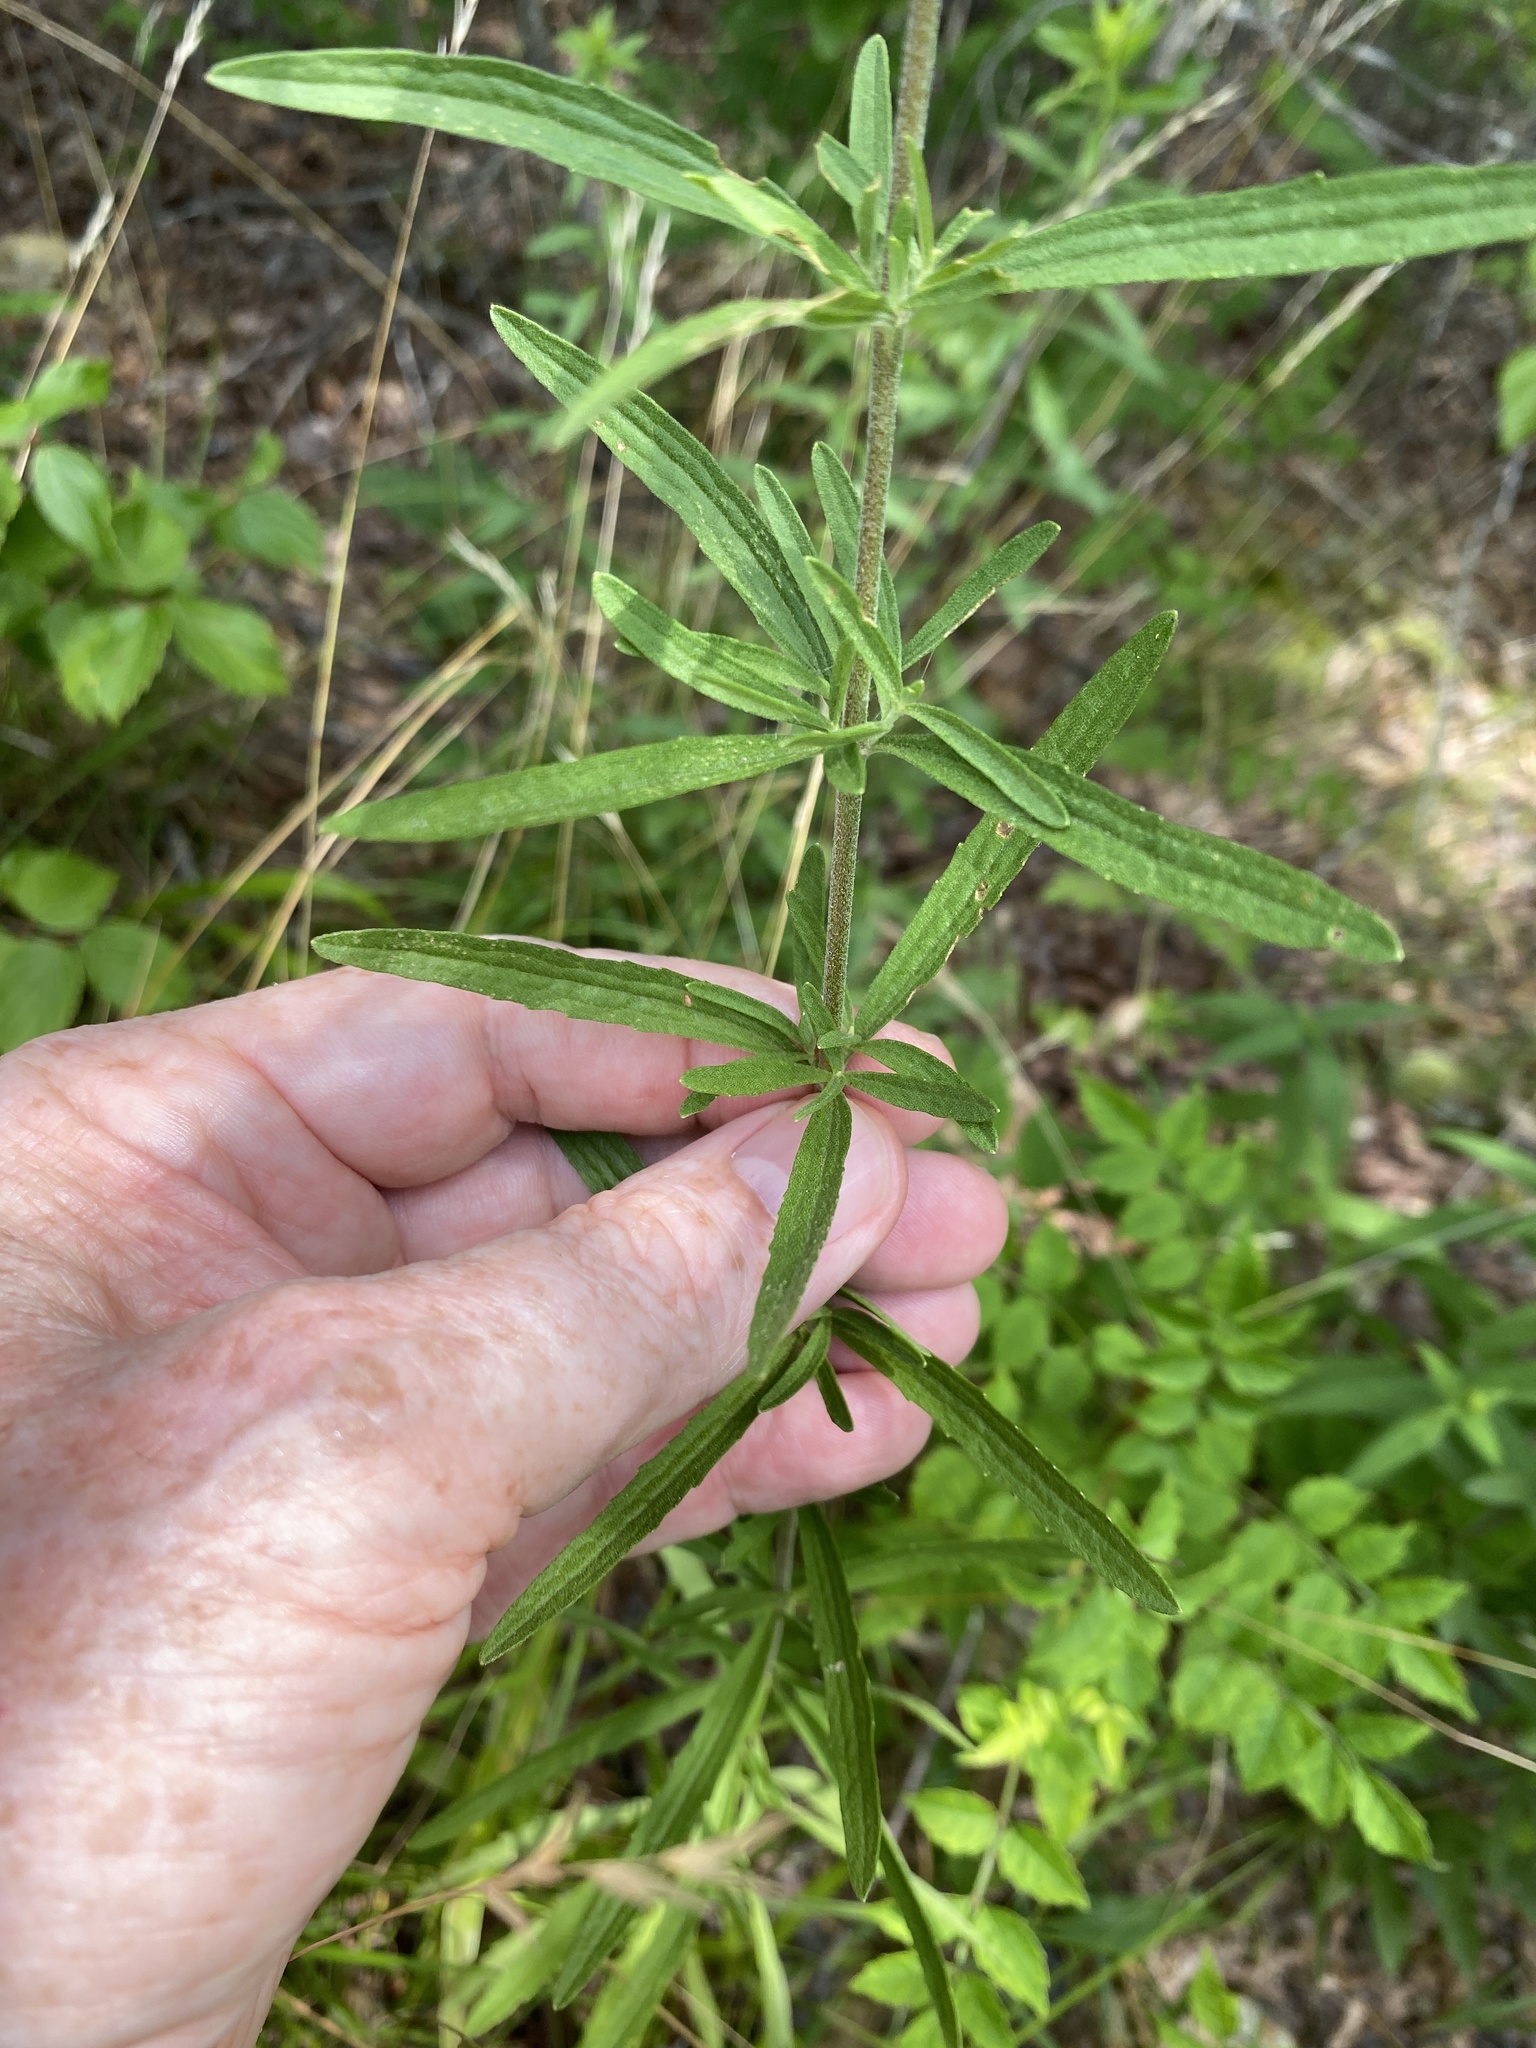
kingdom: Plantae
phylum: Tracheophyta
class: Magnoliopsida
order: Asterales
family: Asteraceae
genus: Eupatorium
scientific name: Eupatorium torreyanum
